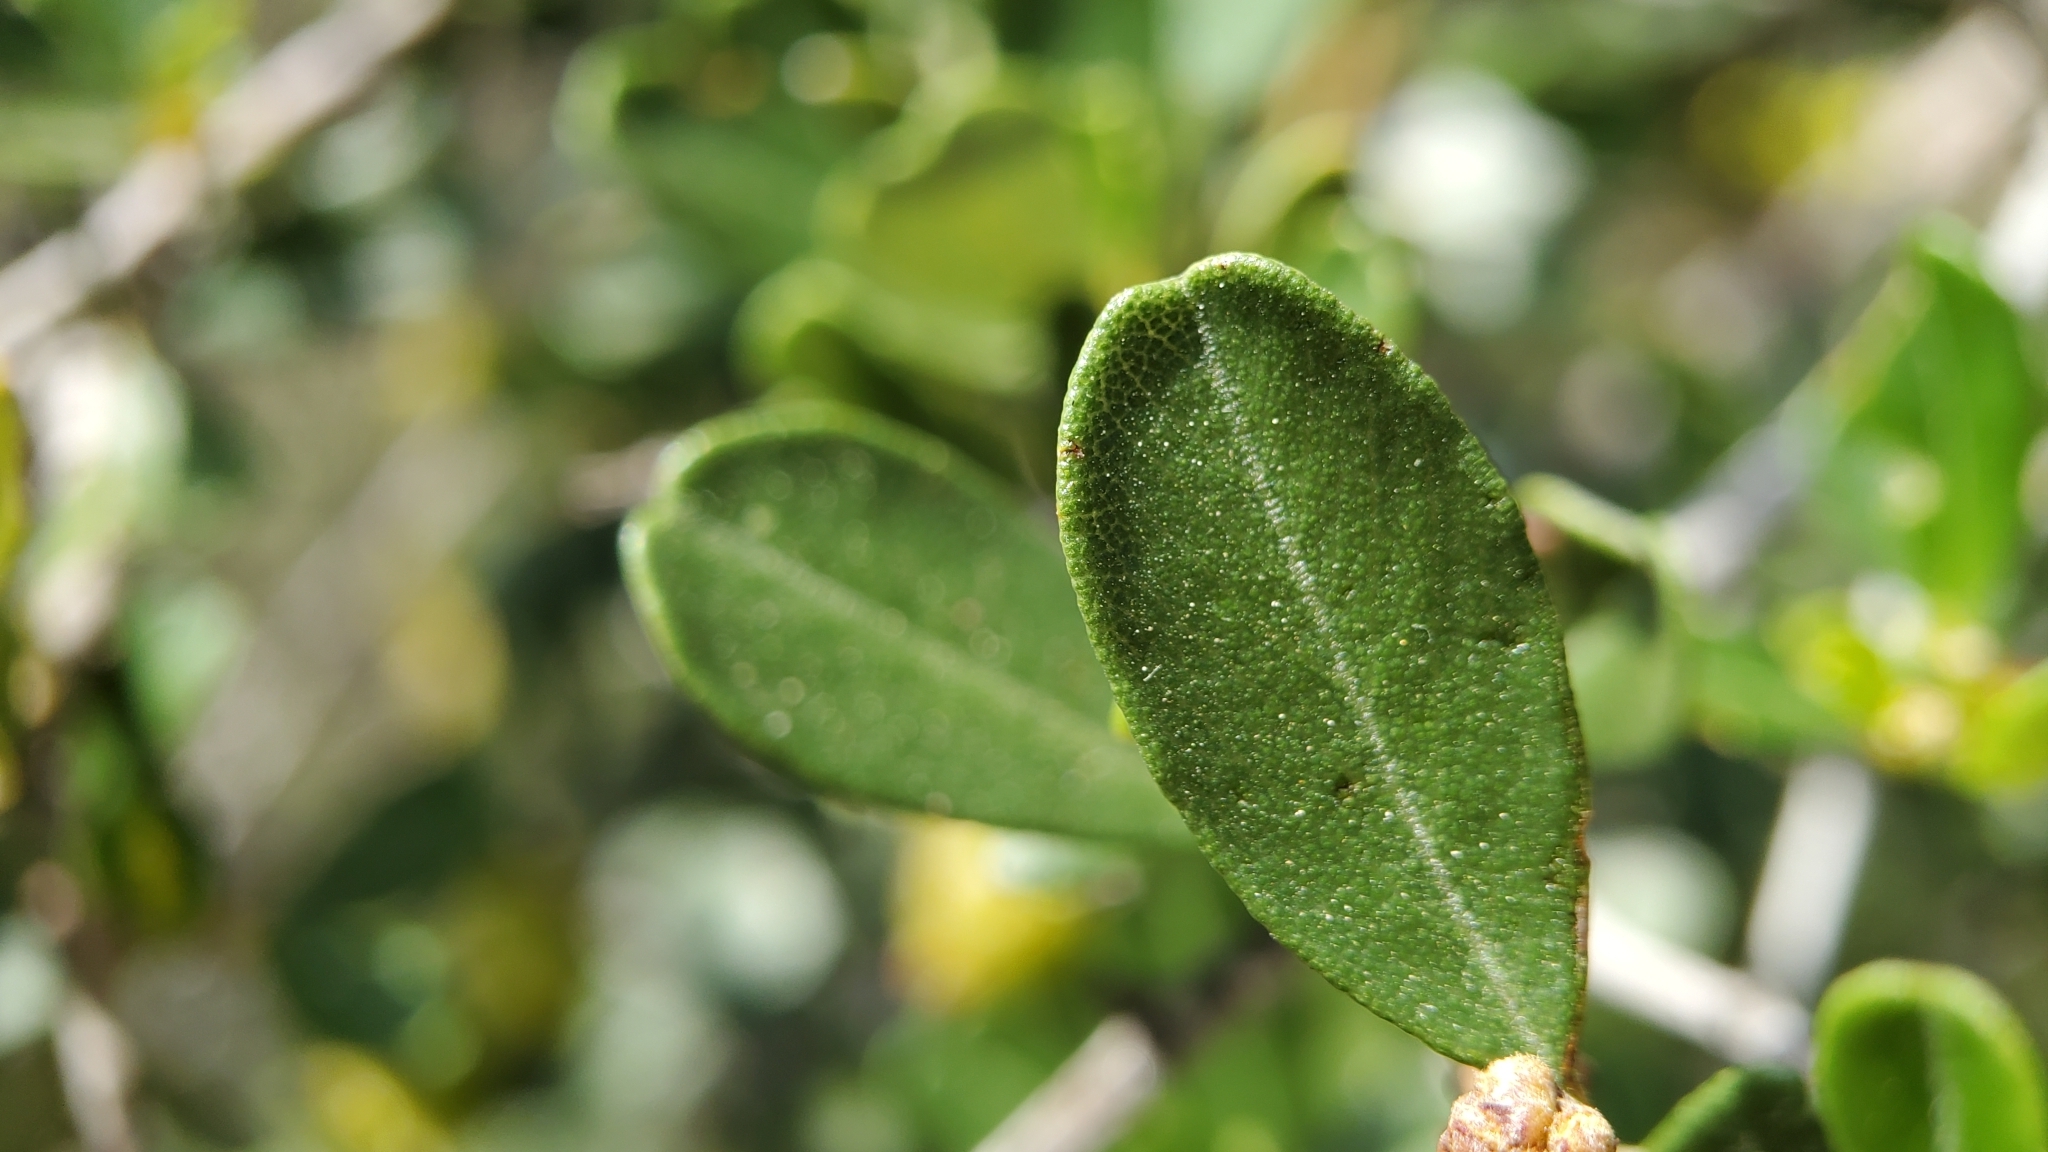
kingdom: Plantae
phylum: Tracheophyta
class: Magnoliopsida
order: Rosales
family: Rhamnaceae
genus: Ceanothus
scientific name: Ceanothus megacarpus
